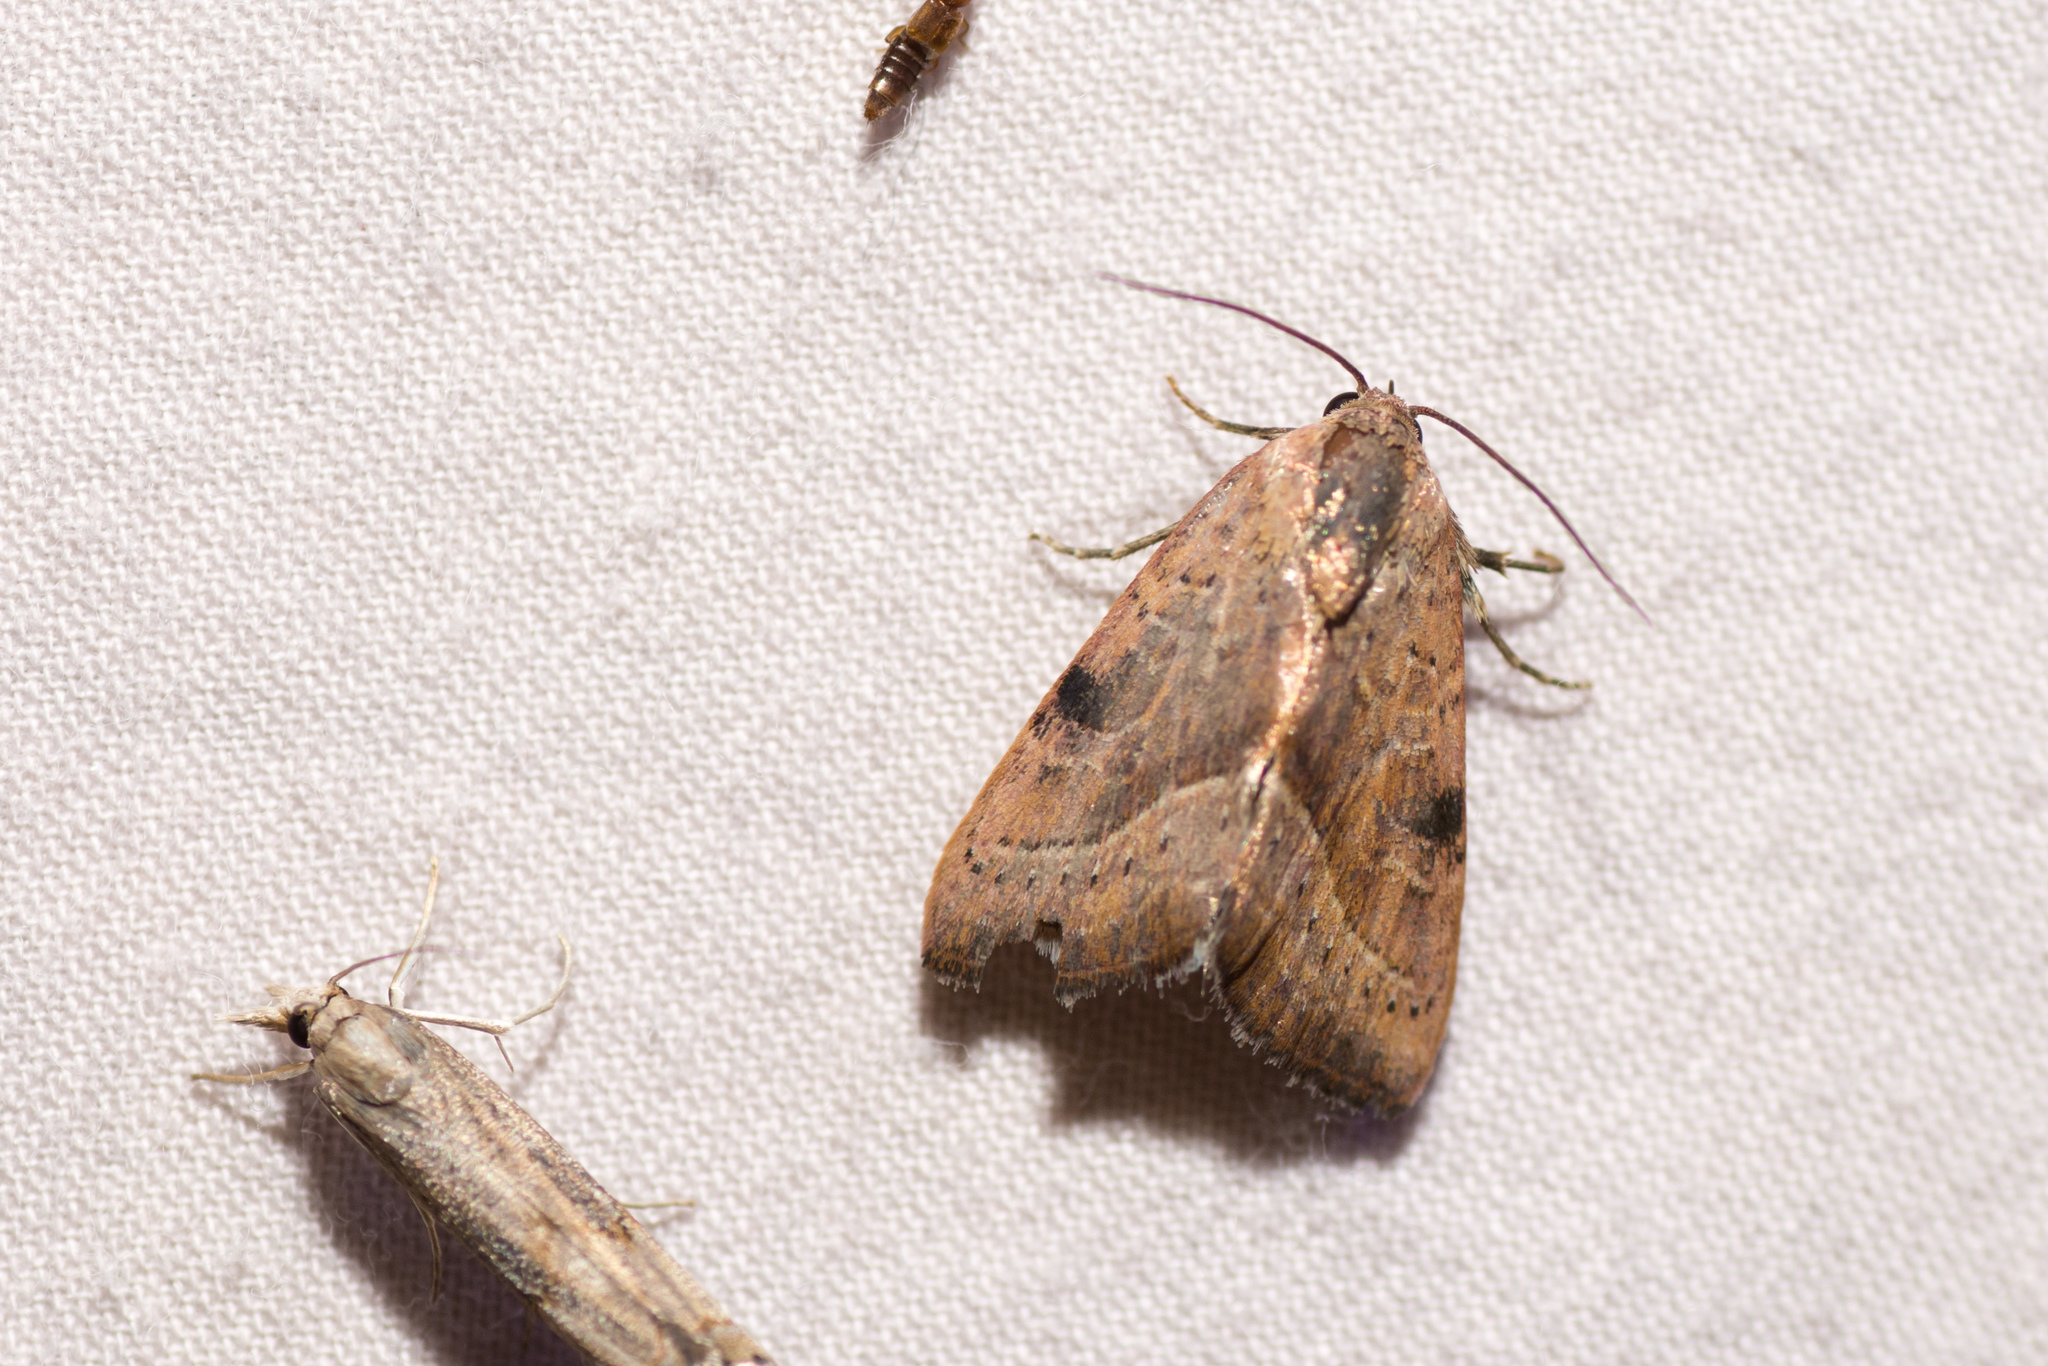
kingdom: Animalia
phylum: Arthropoda
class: Insecta
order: Lepidoptera
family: Noctuidae
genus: Galgula
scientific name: Galgula partita
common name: Wedgeling
